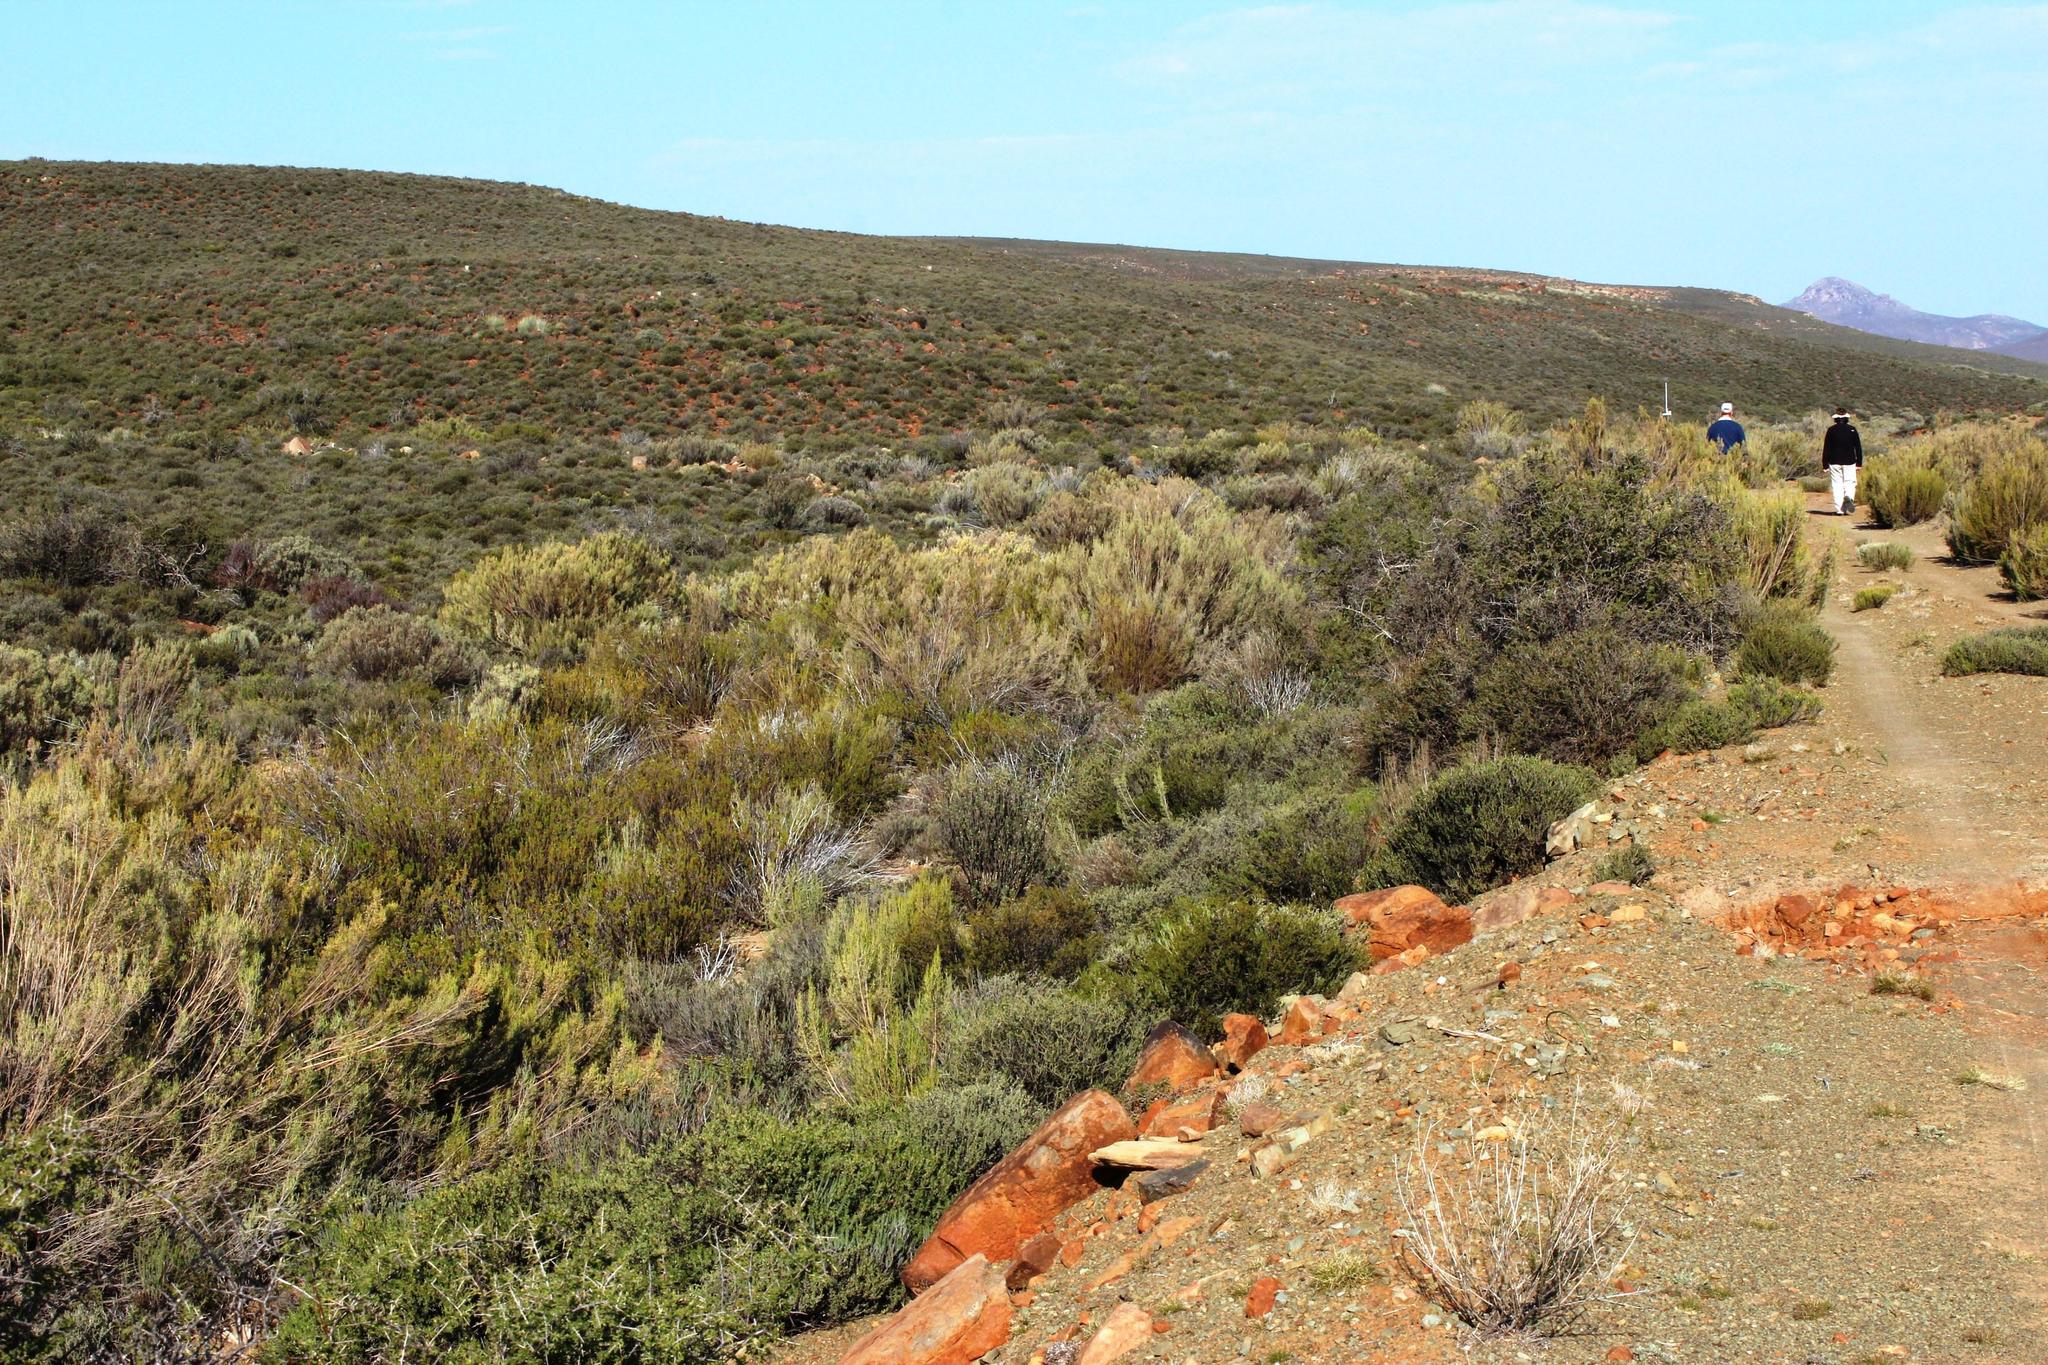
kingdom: Plantae
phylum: Tracheophyta
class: Magnoliopsida
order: Asterales
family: Asteraceae
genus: Dicerothamnus
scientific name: Dicerothamnus rhinocerotis
